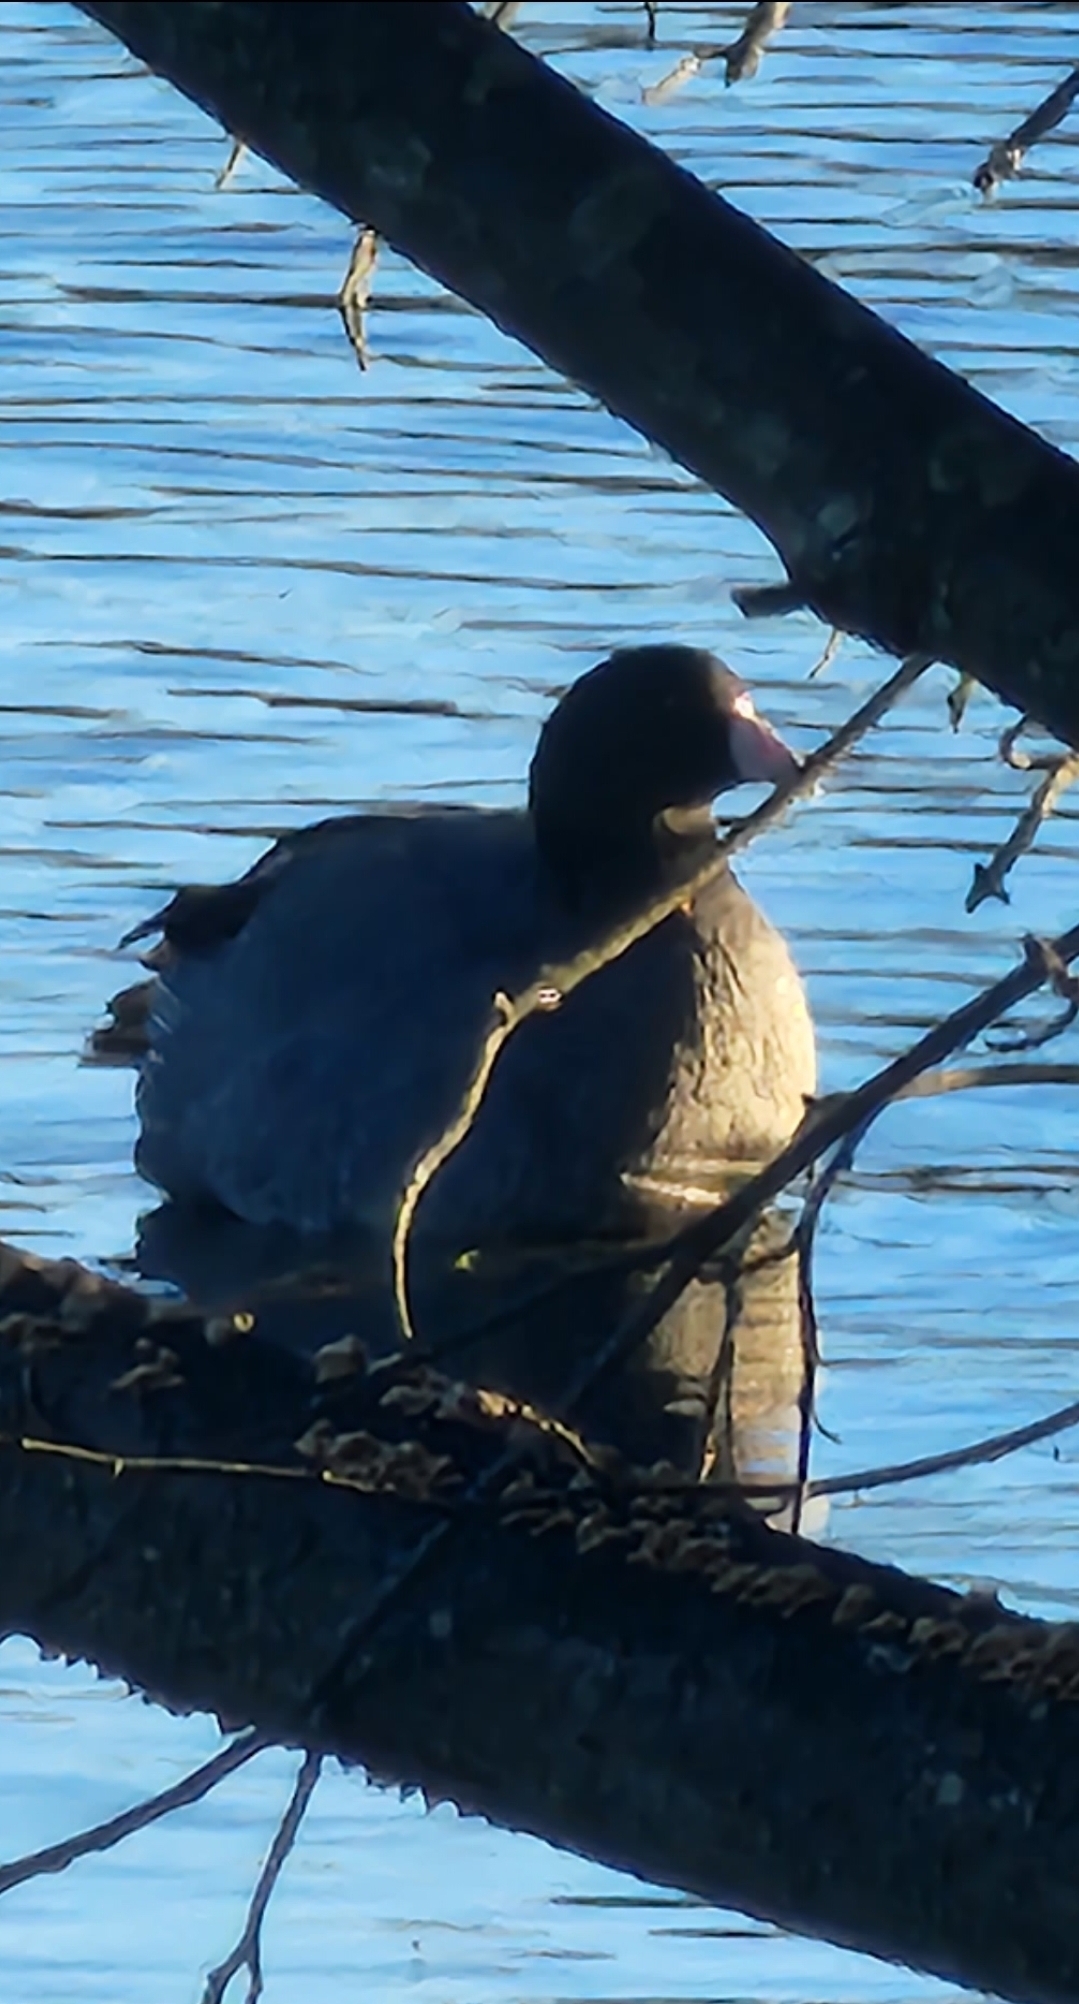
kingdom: Animalia
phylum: Chordata
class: Aves
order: Gruiformes
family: Rallidae
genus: Fulica
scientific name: Fulica americana
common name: American coot
